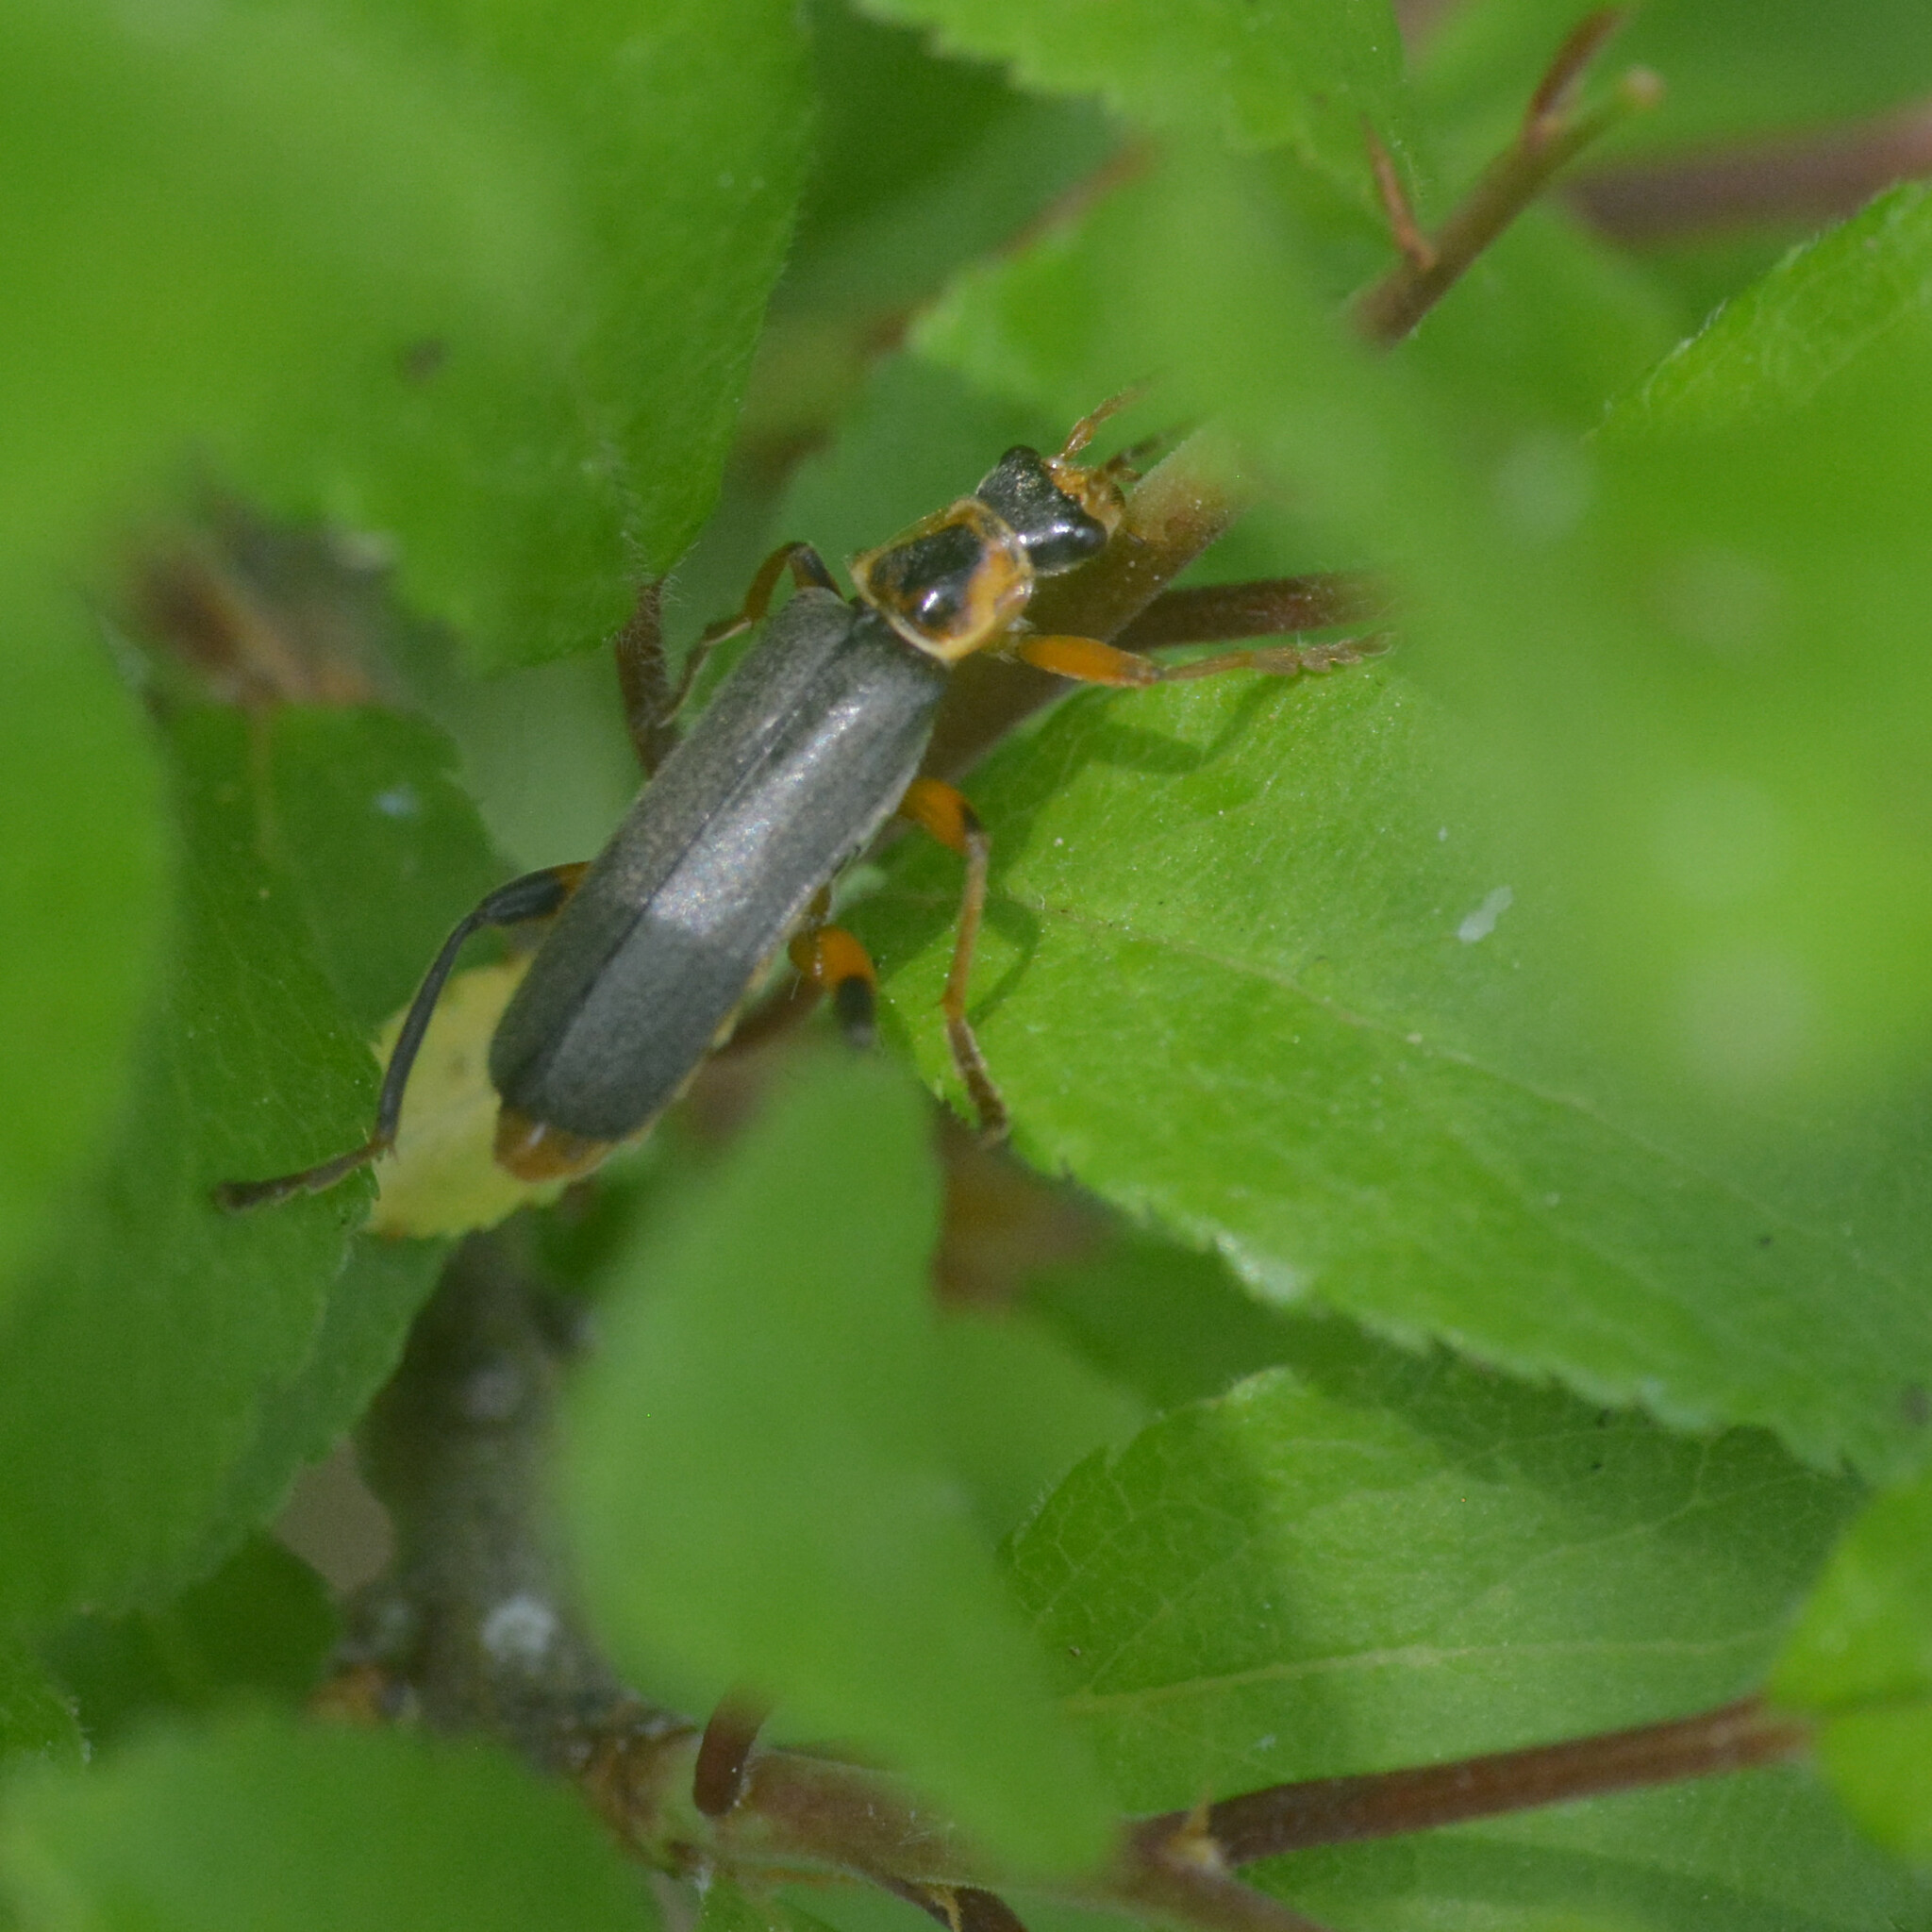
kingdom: Animalia
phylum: Arthropoda
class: Insecta
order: Coleoptera
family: Cantharidae
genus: Cantharis
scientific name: Cantharis nigricans
